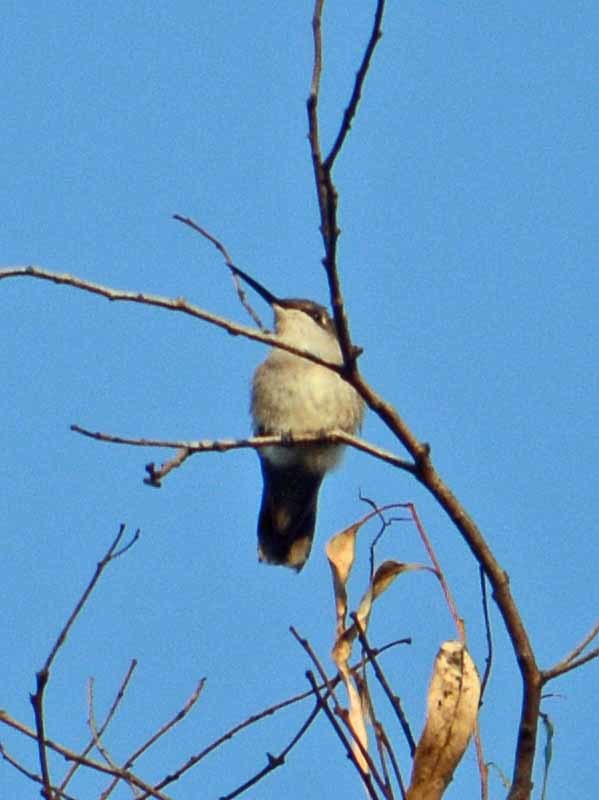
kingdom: Animalia
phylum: Chordata
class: Aves
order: Apodiformes
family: Trochilidae
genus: Archilochus
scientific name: Archilochus colubris
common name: Ruby-throated hummingbird
